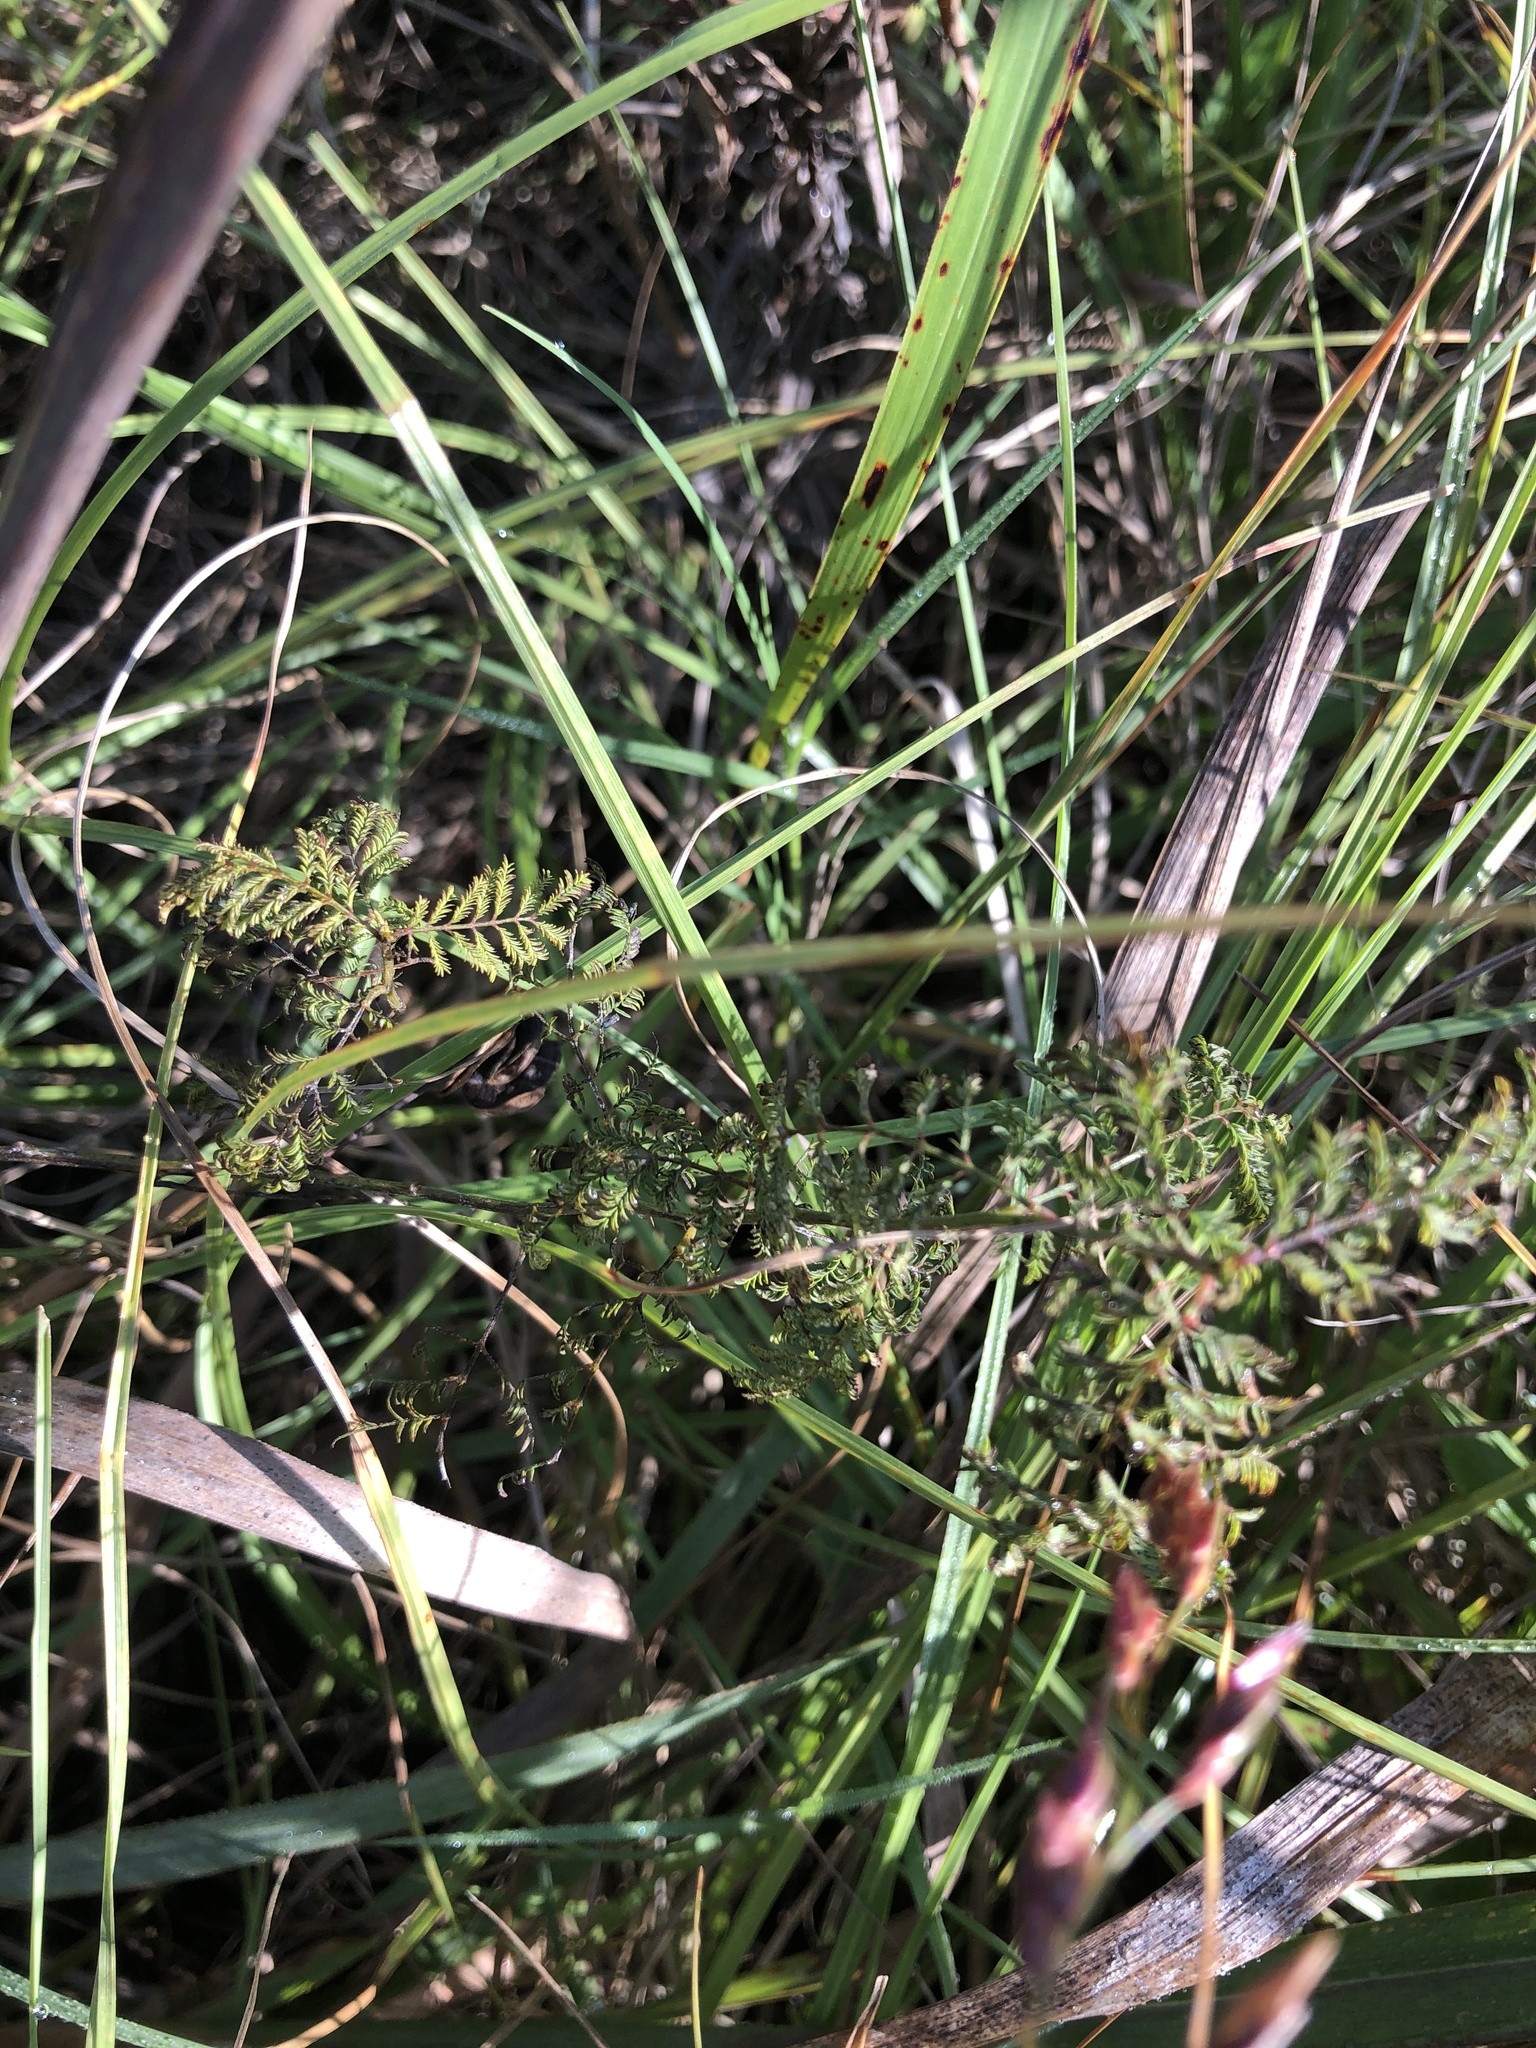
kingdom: Plantae
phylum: Tracheophyta
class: Magnoliopsida
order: Fabales
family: Fabaceae
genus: Desmanthus
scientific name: Desmanthus illinoensis
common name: Illinois bundle-flower
